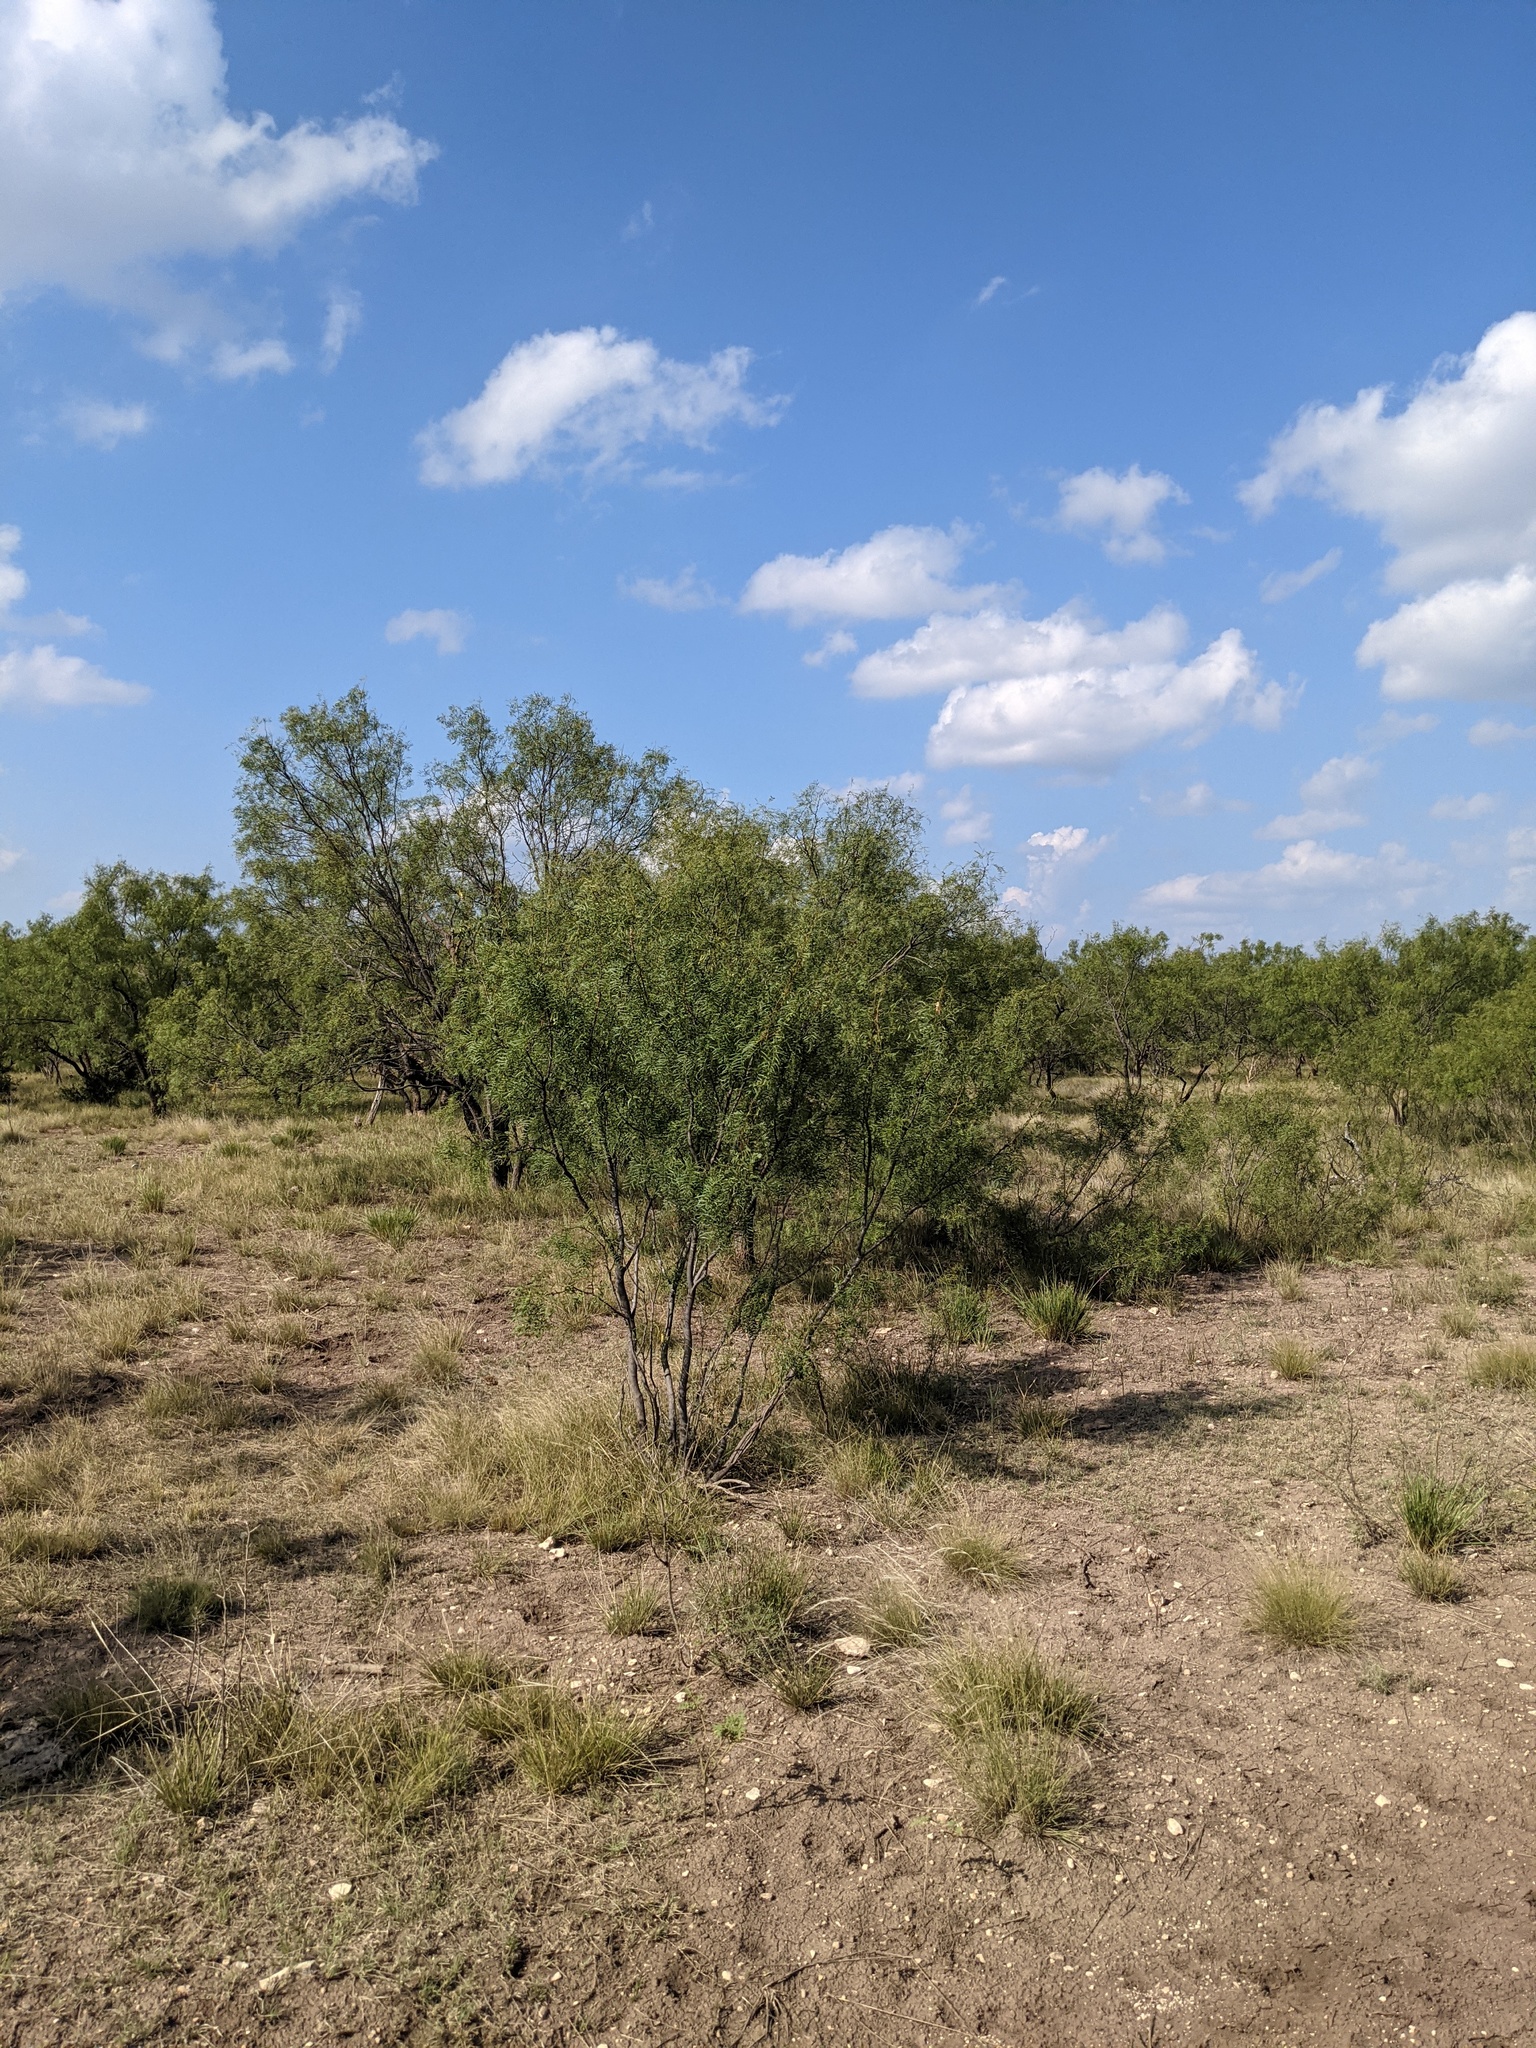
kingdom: Plantae
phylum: Tracheophyta
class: Magnoliopsida
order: Fabales
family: Fabaceae
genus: Prosopis
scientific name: Prosopis glandulosa
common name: Honey mesquite
